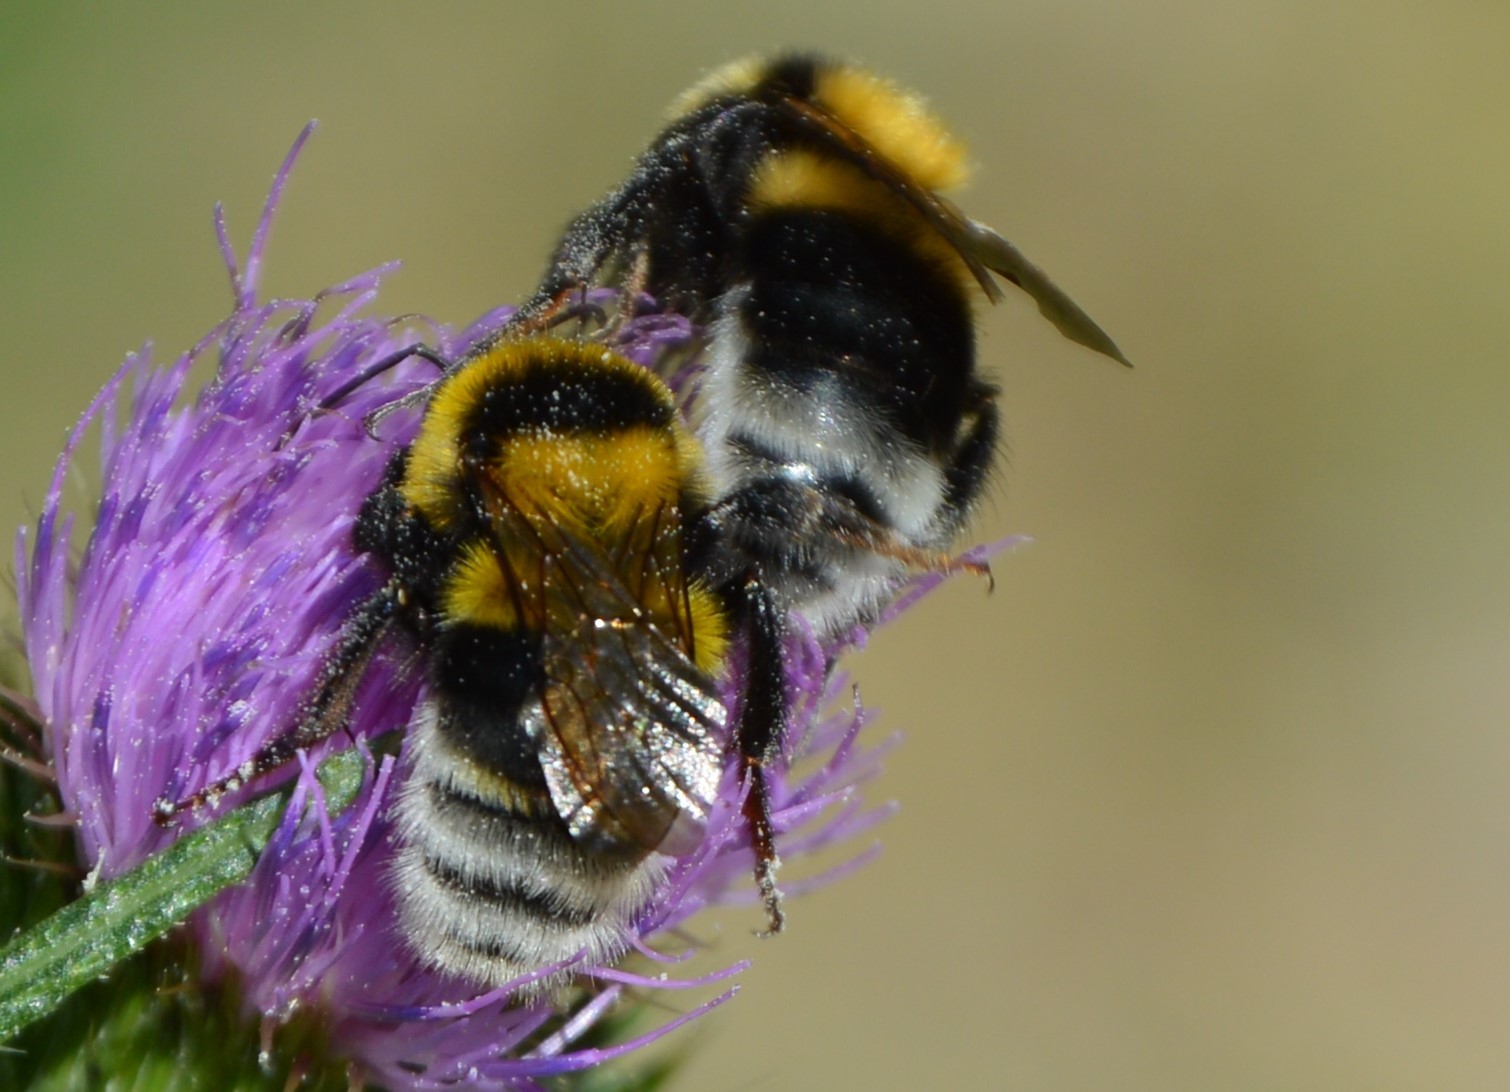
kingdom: Animalia
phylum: Arthropoda
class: Insecta
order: Hymenoptera
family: Apidae
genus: Bombus
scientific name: Bombus ruderatus
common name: Large garden bumblebee
